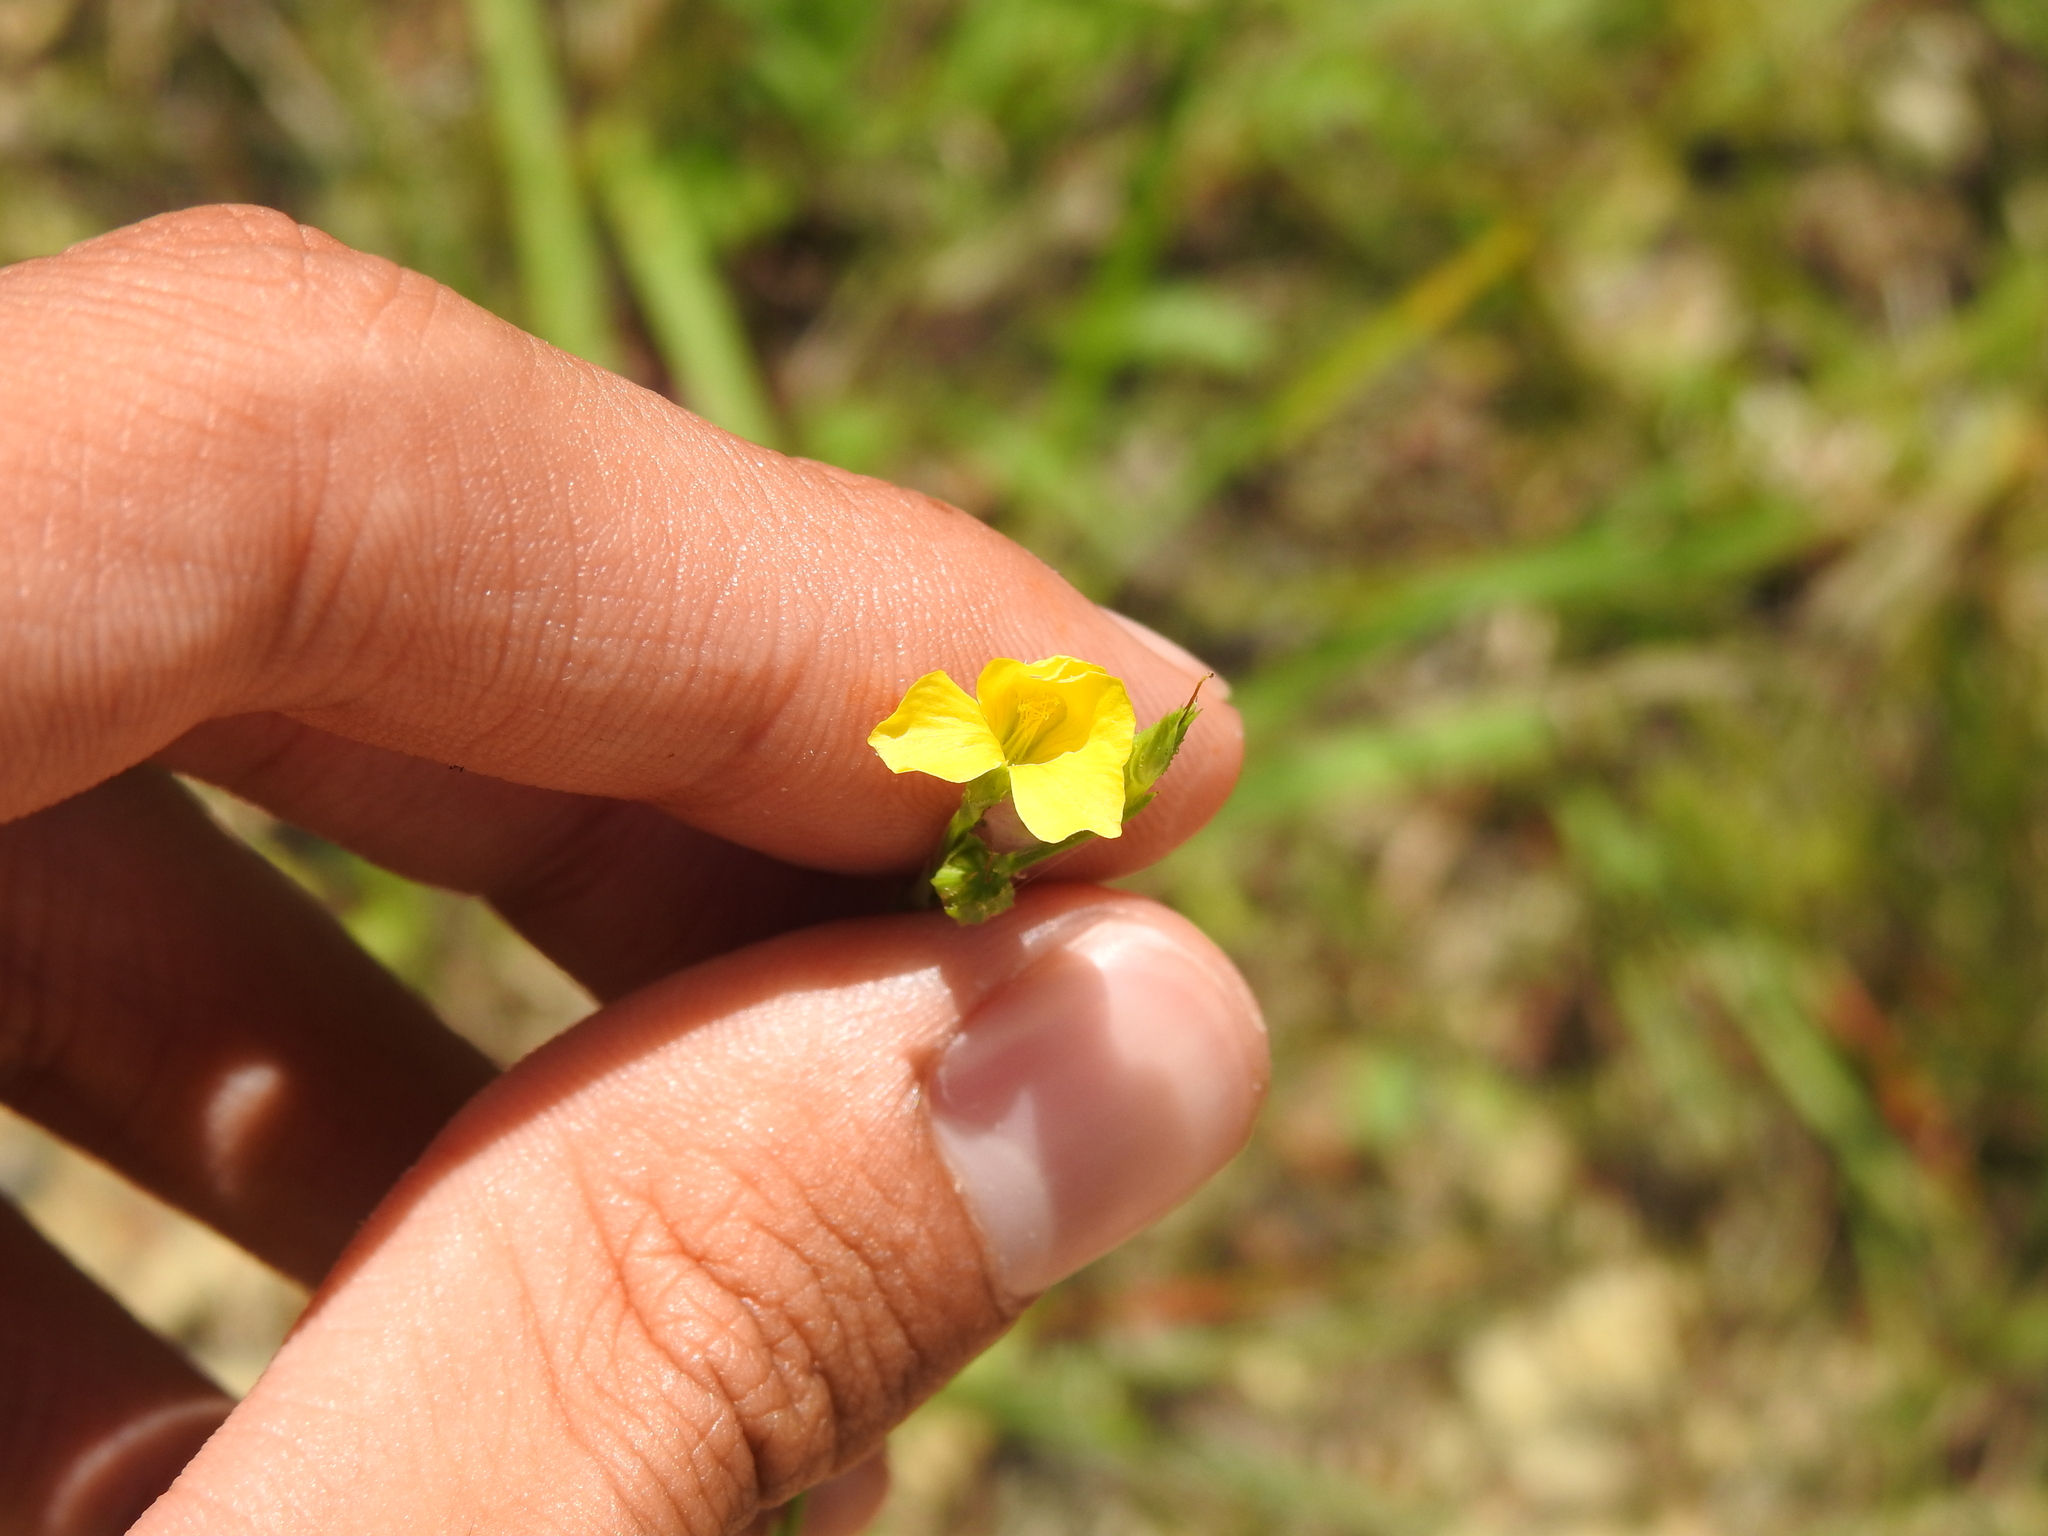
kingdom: Plantae
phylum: Tracheophyta
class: Magnoliopsida
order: Malpighiales
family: Linaceae
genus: Linum
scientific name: Linum medium
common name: Stiff yellow flax
